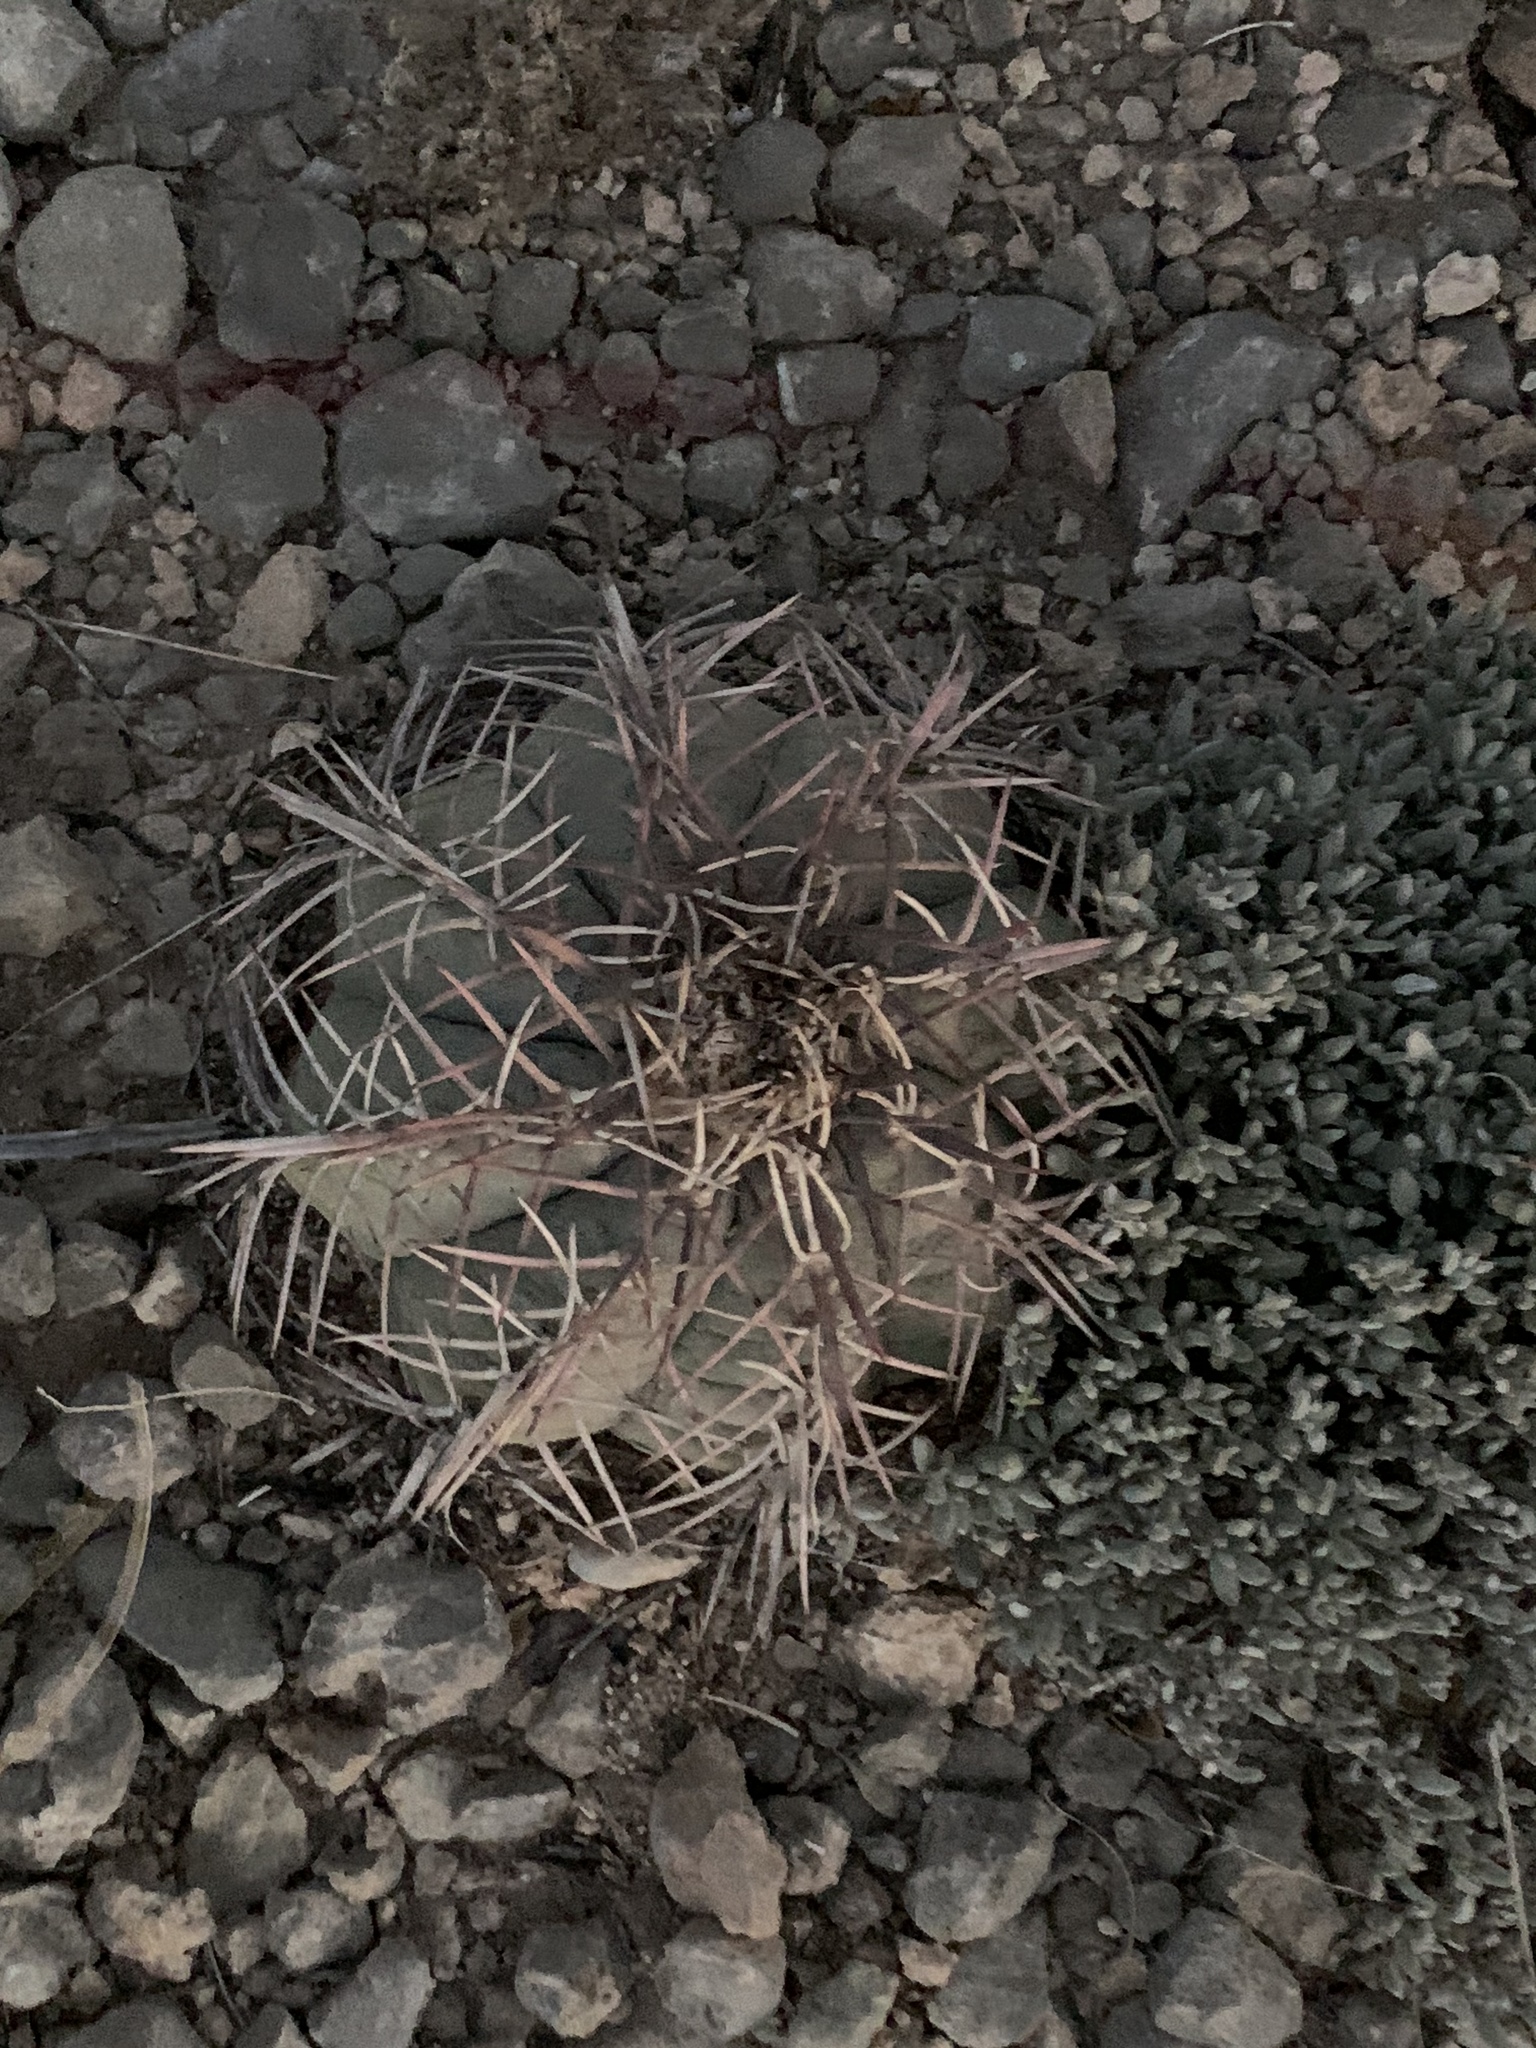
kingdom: Plantae
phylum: Tracheophyta
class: Magnoliopsida
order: Caryophyllales
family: Cactaceae
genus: Echinocactus
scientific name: Echinocactus horizonthalonius
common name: Devilshead
